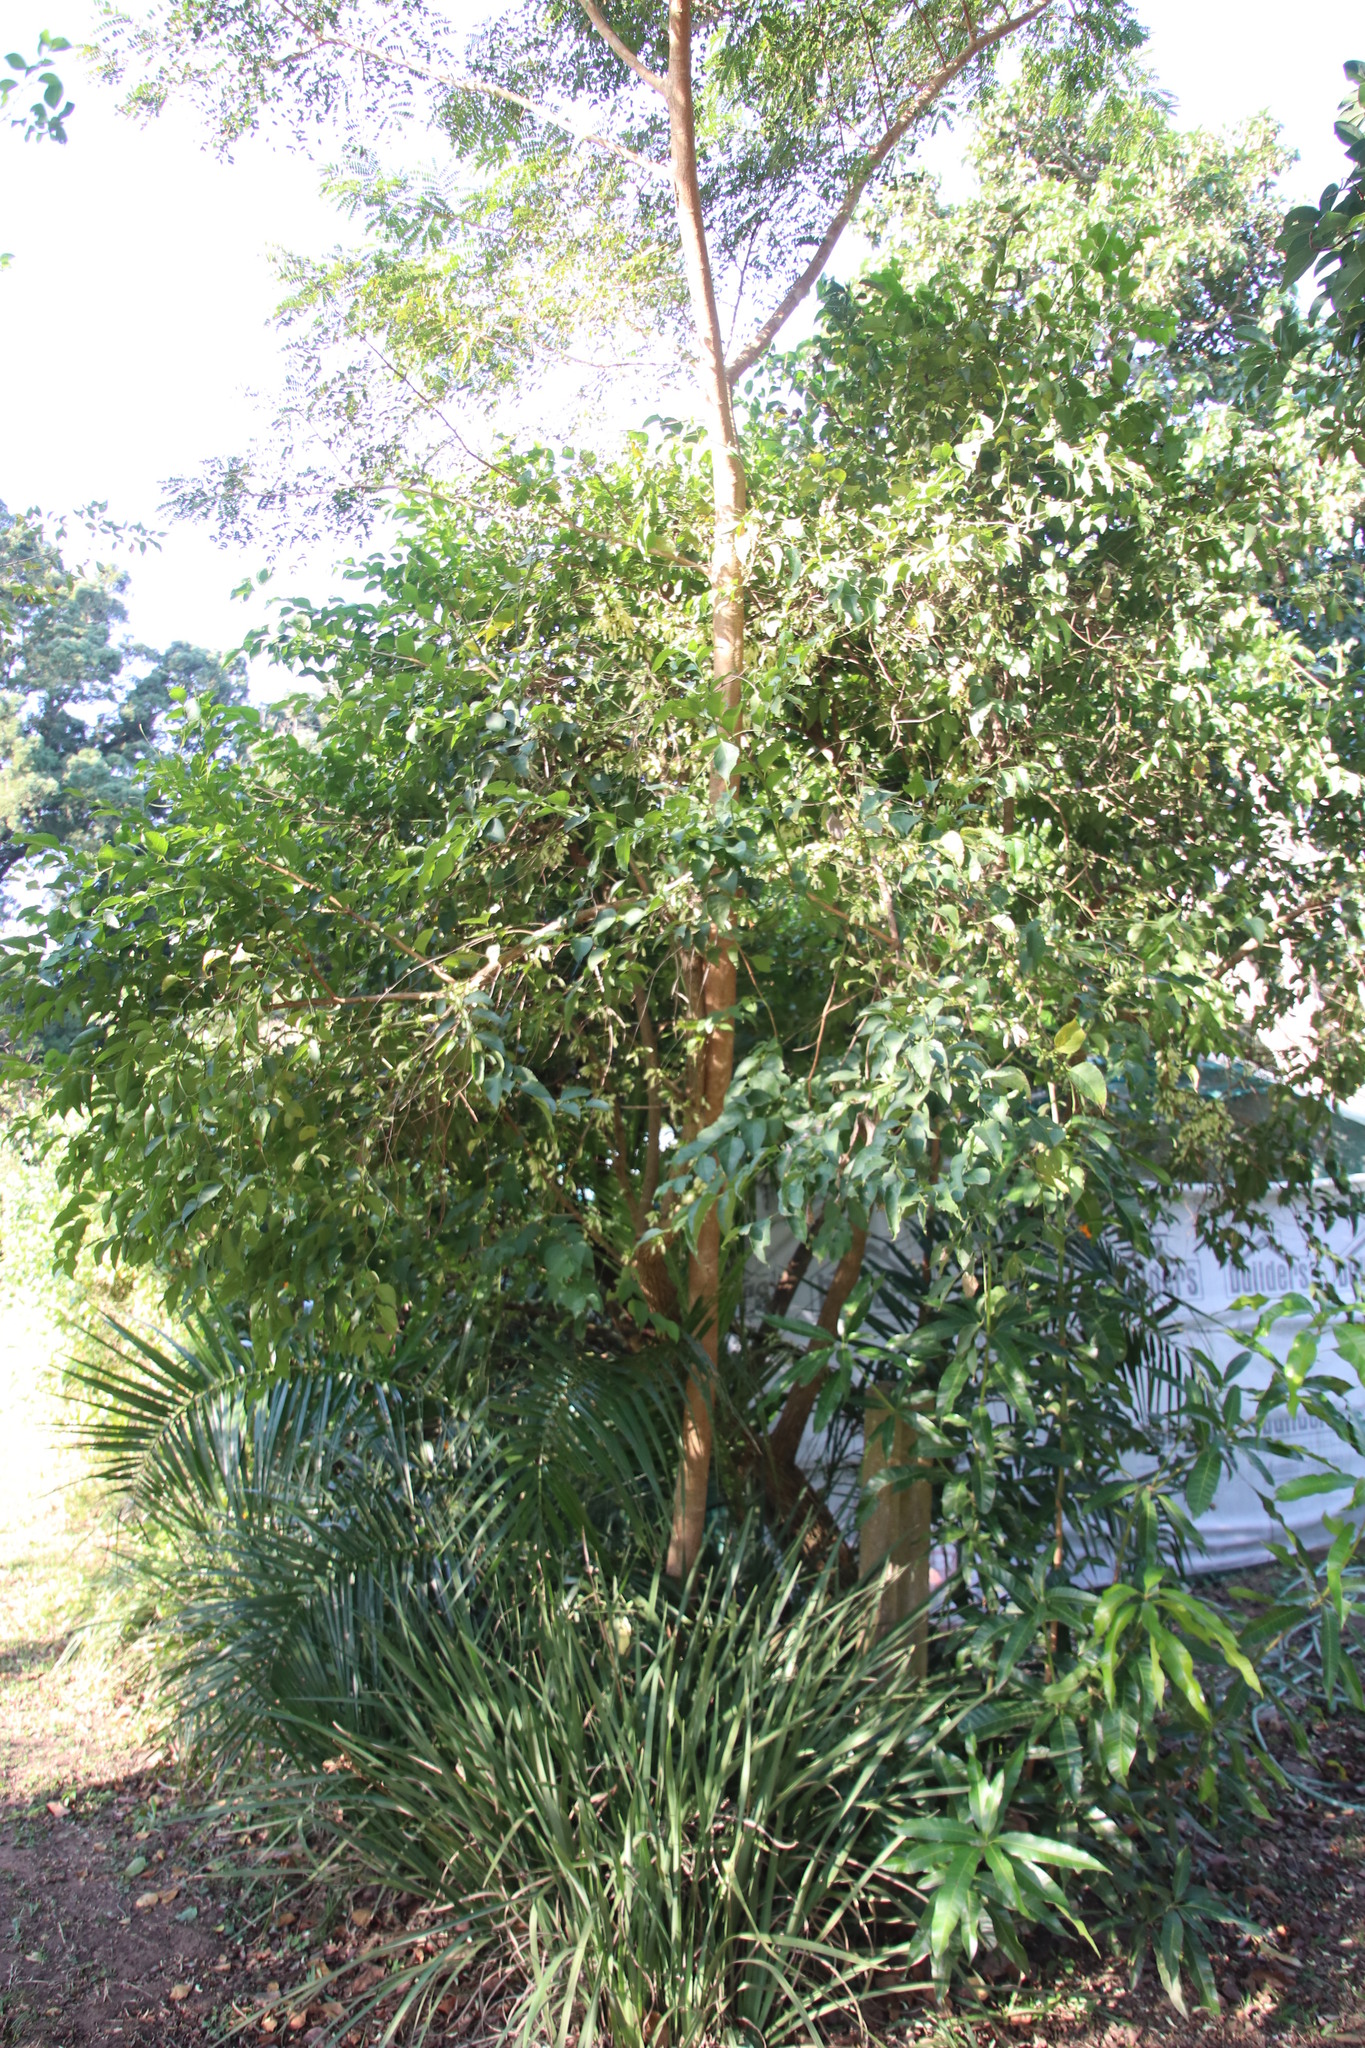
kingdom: Plantae
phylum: Tracheophyta
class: Magnoliopsida
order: Lamiales
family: Stilbaceae
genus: Halleria
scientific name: Halleria lucida
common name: Tree fuschia
